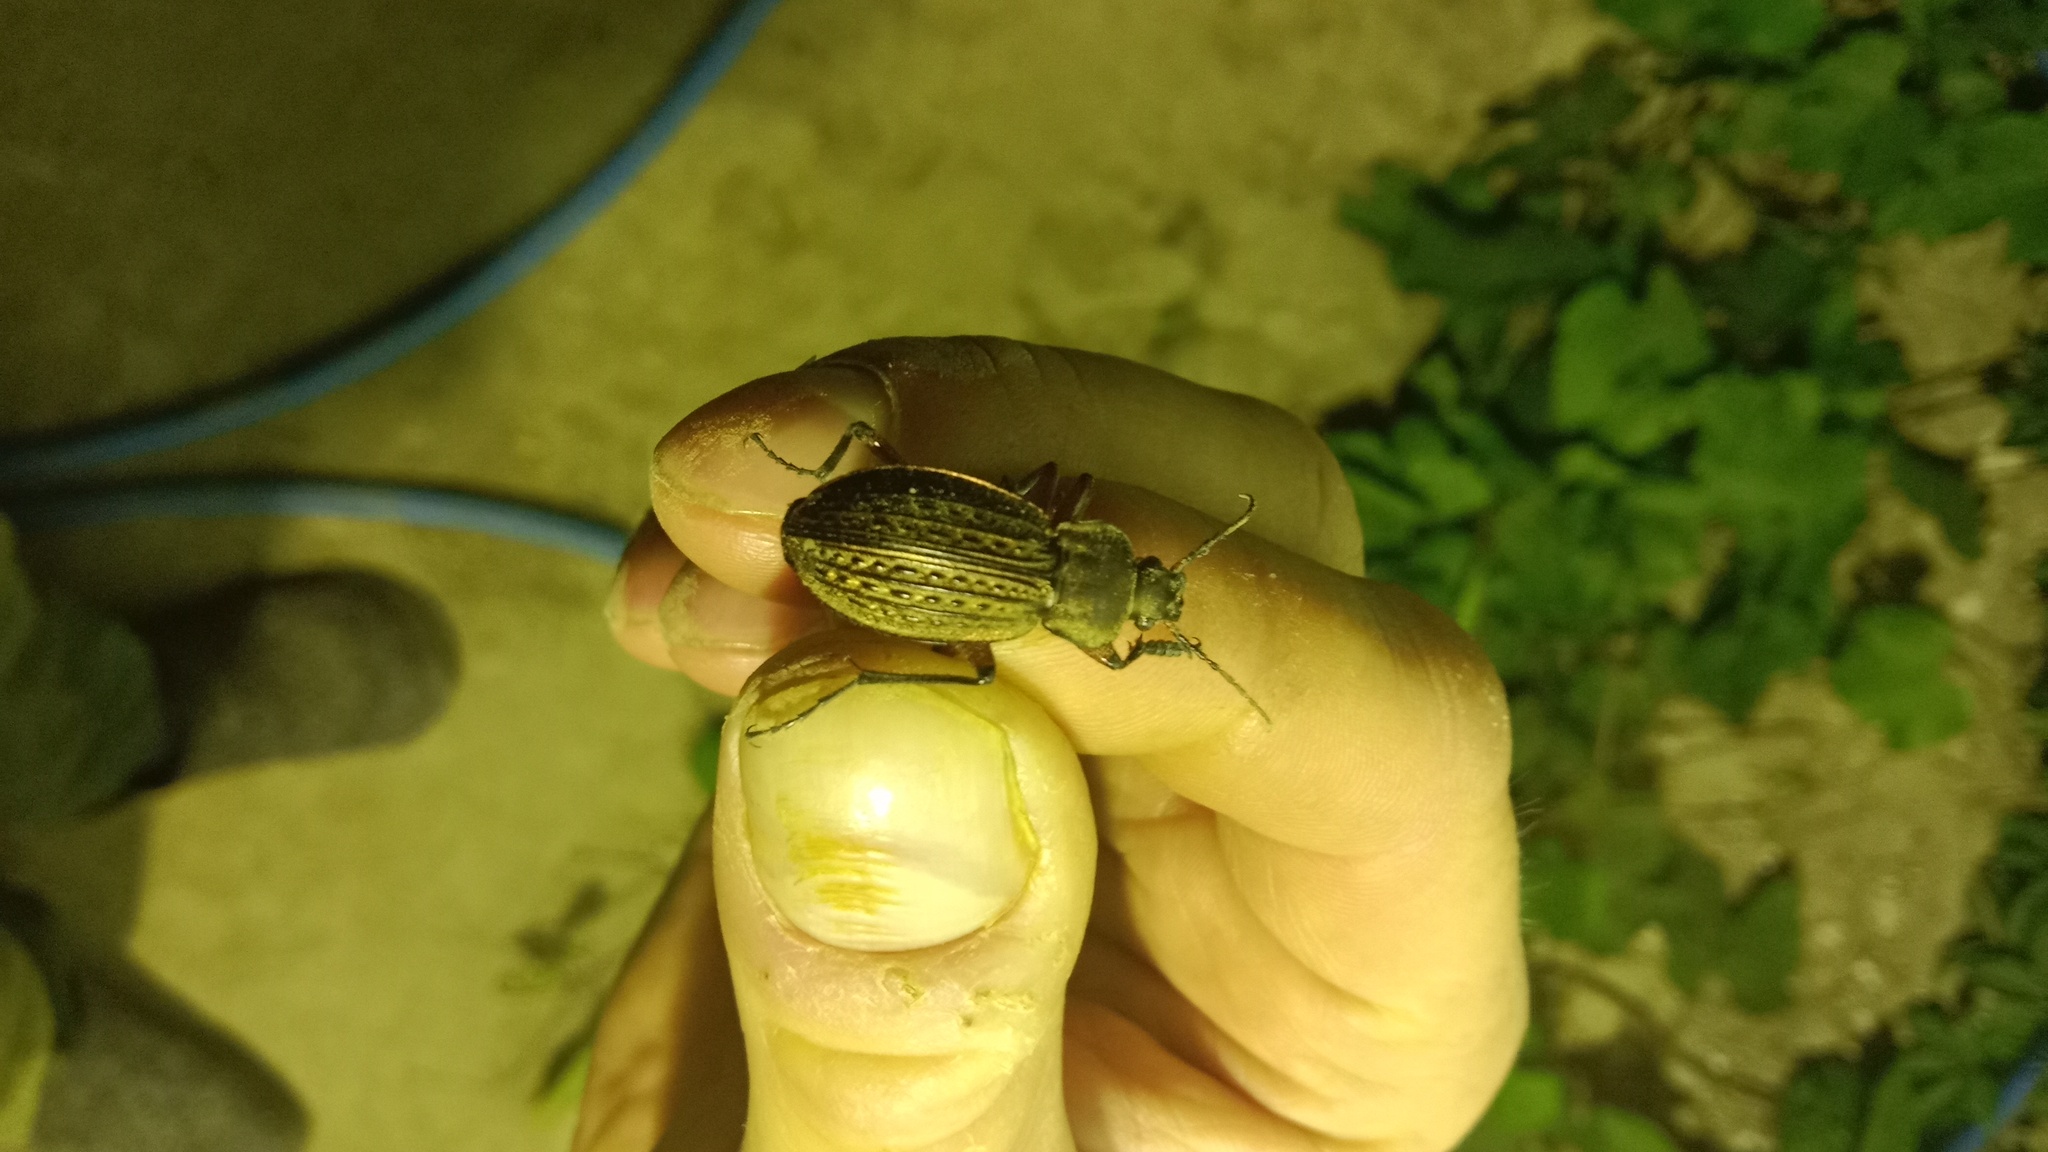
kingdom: Animalia
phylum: Arthropoda
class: Insecta
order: Coleoptera
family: Carabidae
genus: Carabus
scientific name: Carabus cancellatus
